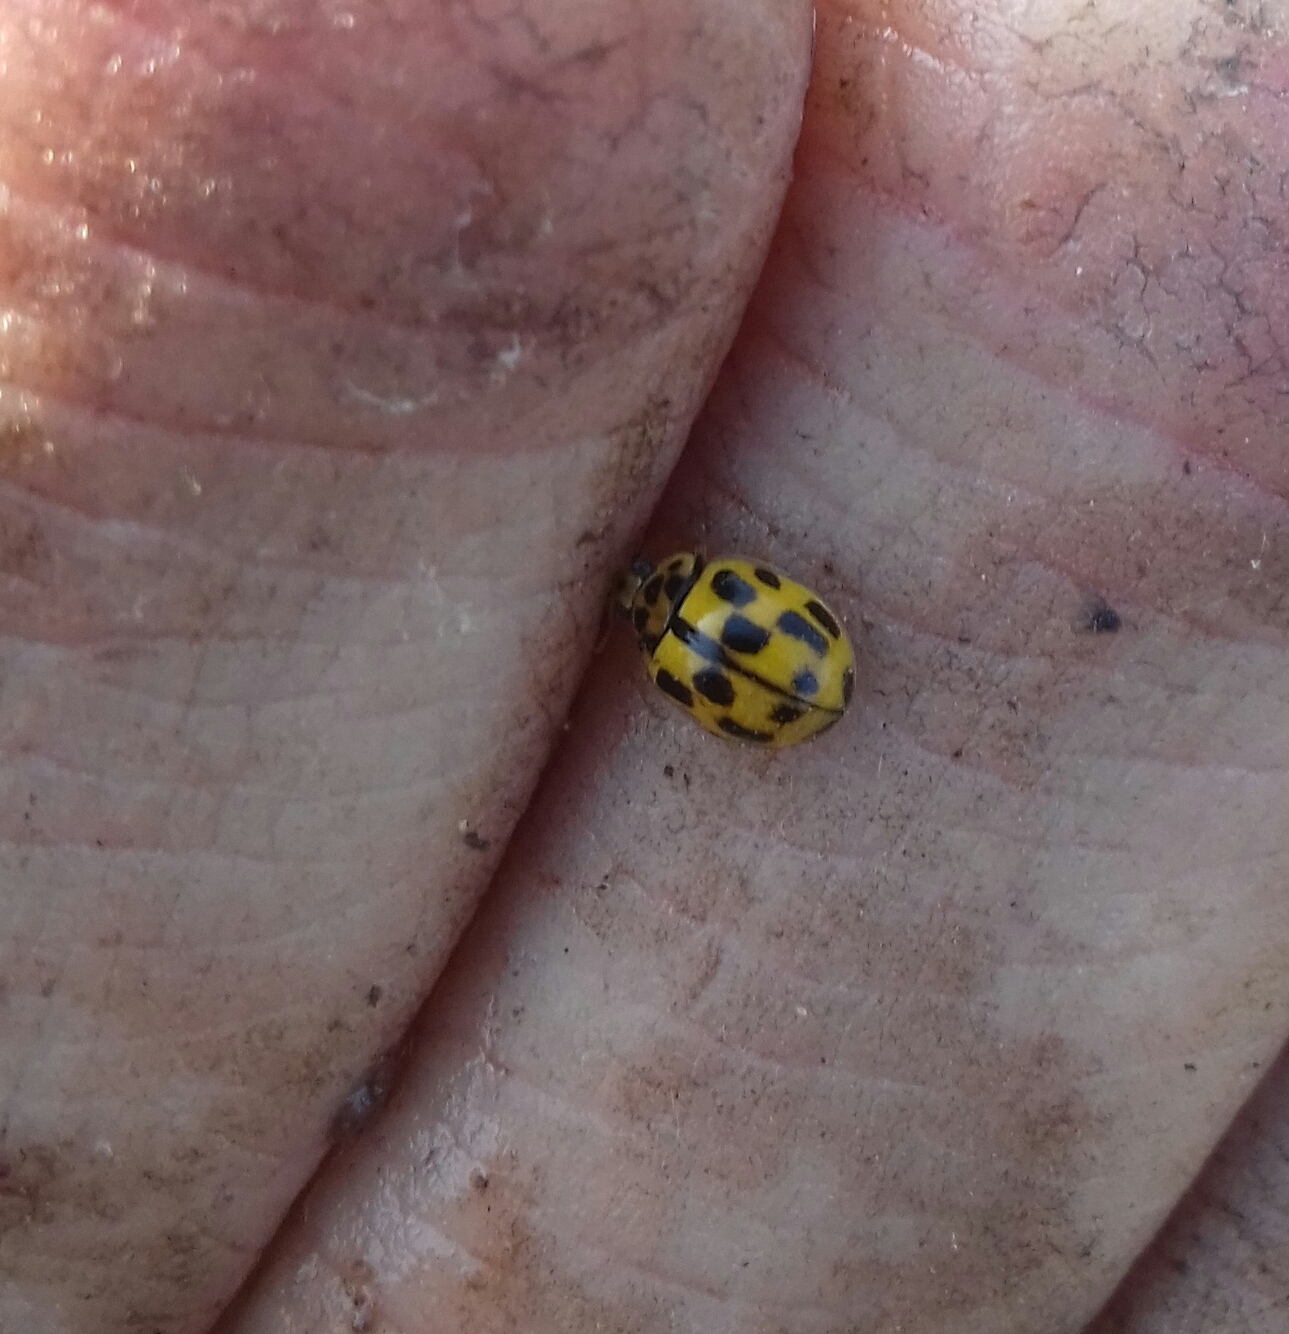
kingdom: Animalia
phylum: Arthropoda
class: Insecta
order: Coleoptera
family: Coccinellidae
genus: Propylaea
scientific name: Propylaea quatuordecimpunctata
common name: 14-spotted ladybird beetle
